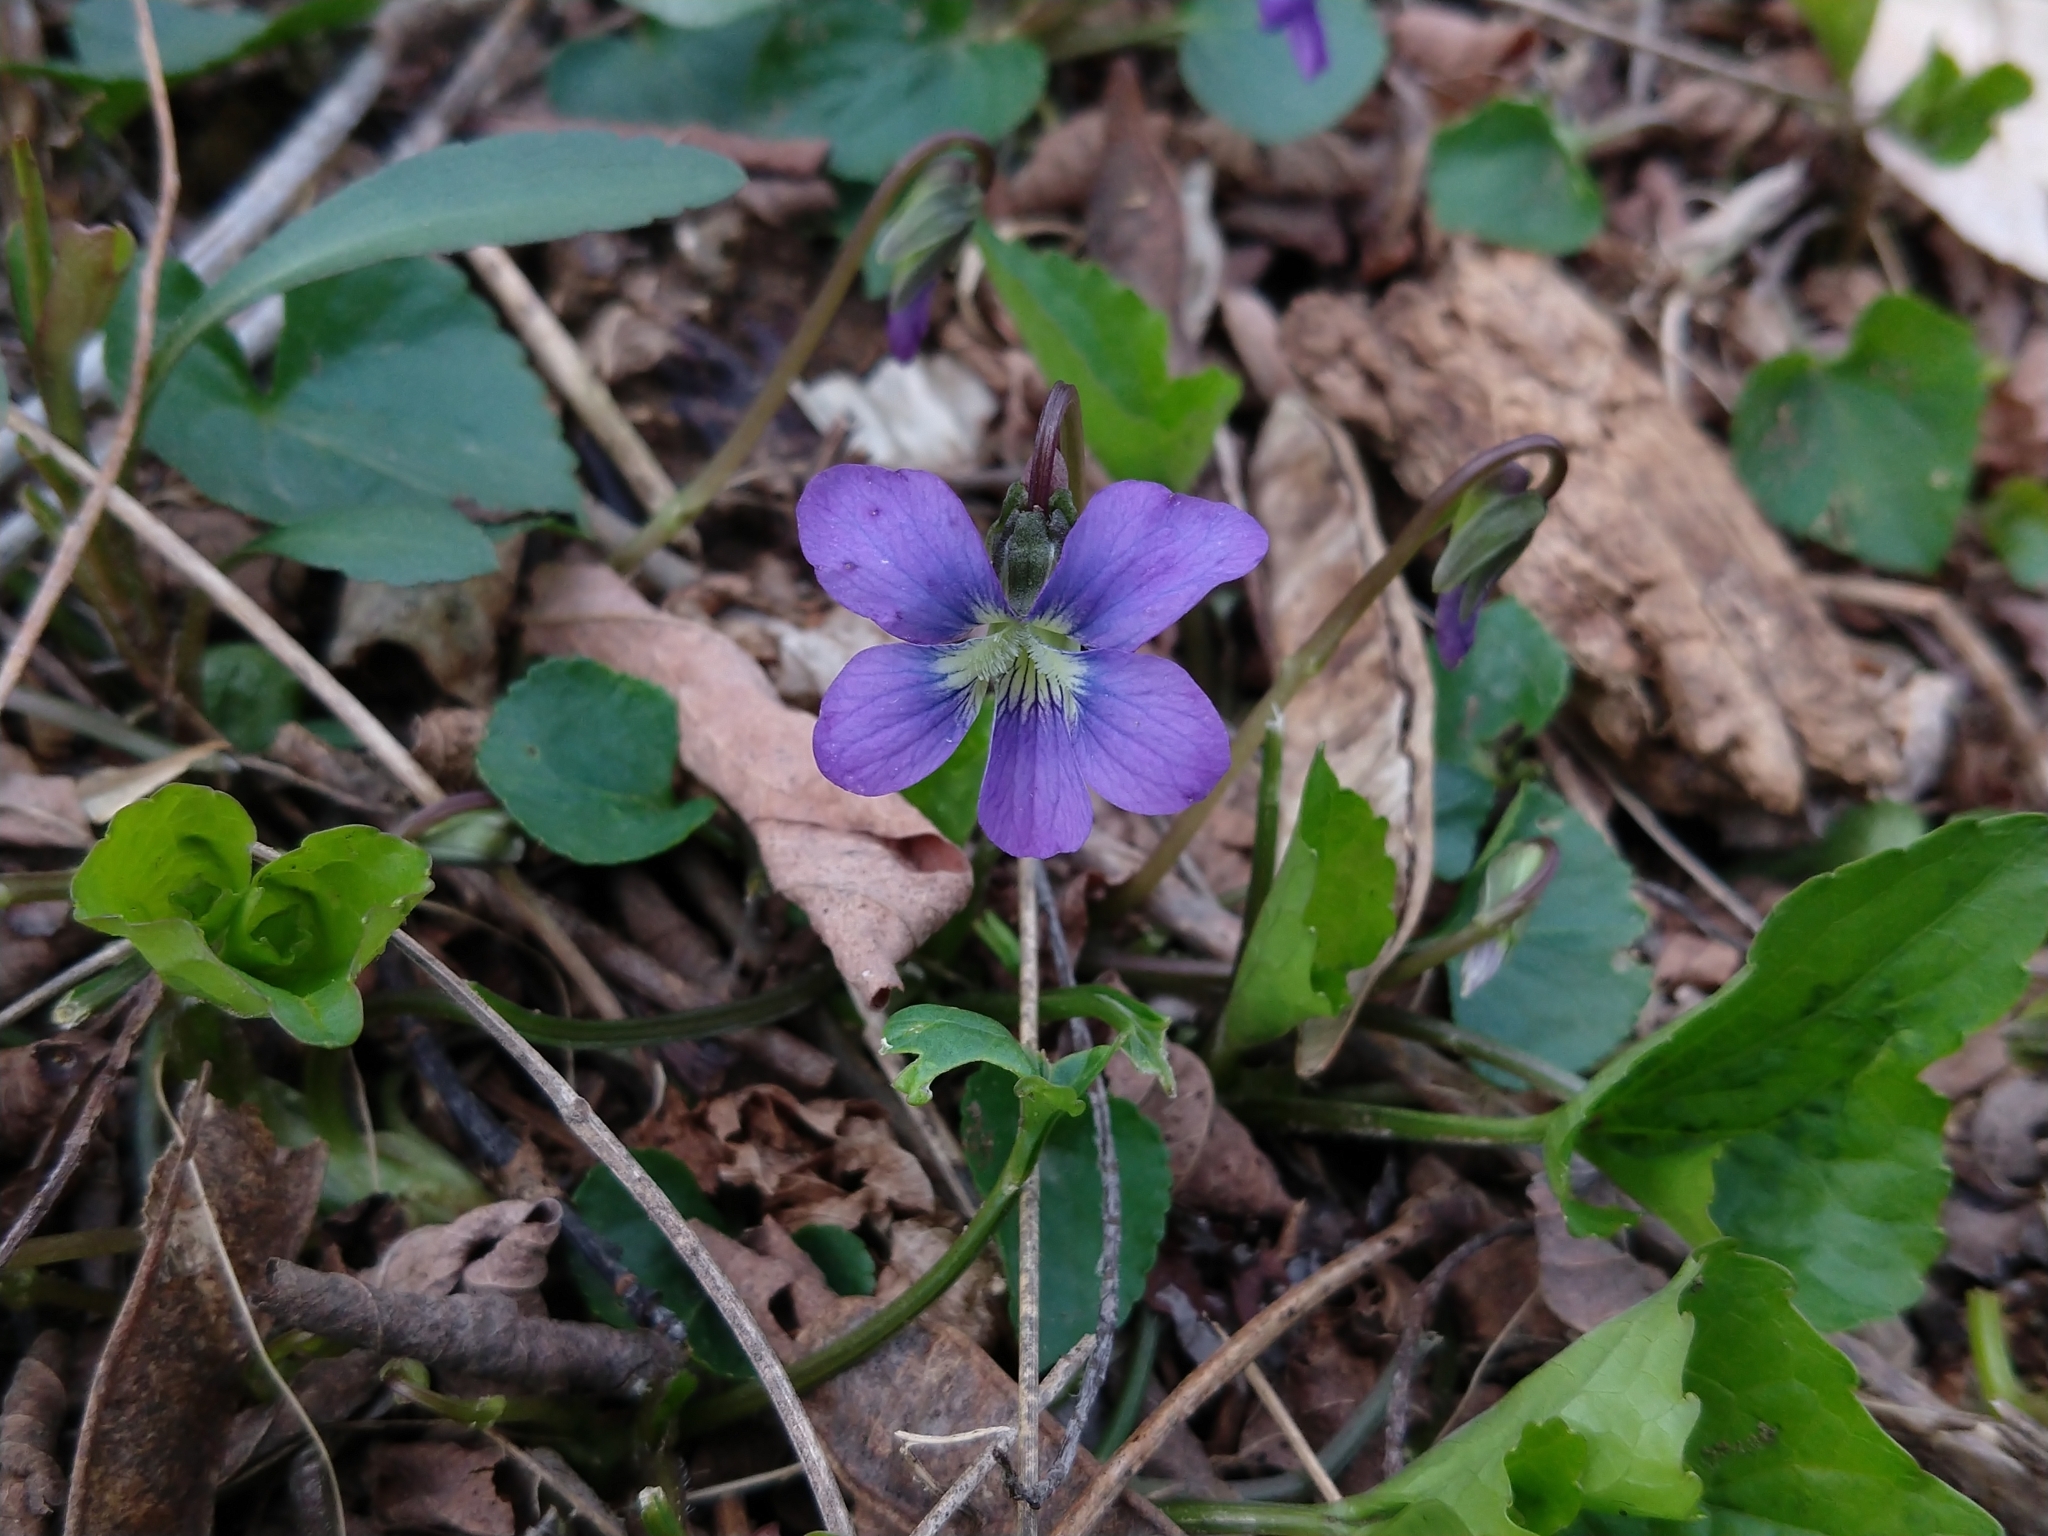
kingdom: Plantae
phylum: Tracheophyta
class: Magnoliopsida
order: Malpighiales
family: Violaceae
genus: Viola
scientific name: Viola sororia
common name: Dooryard violet
